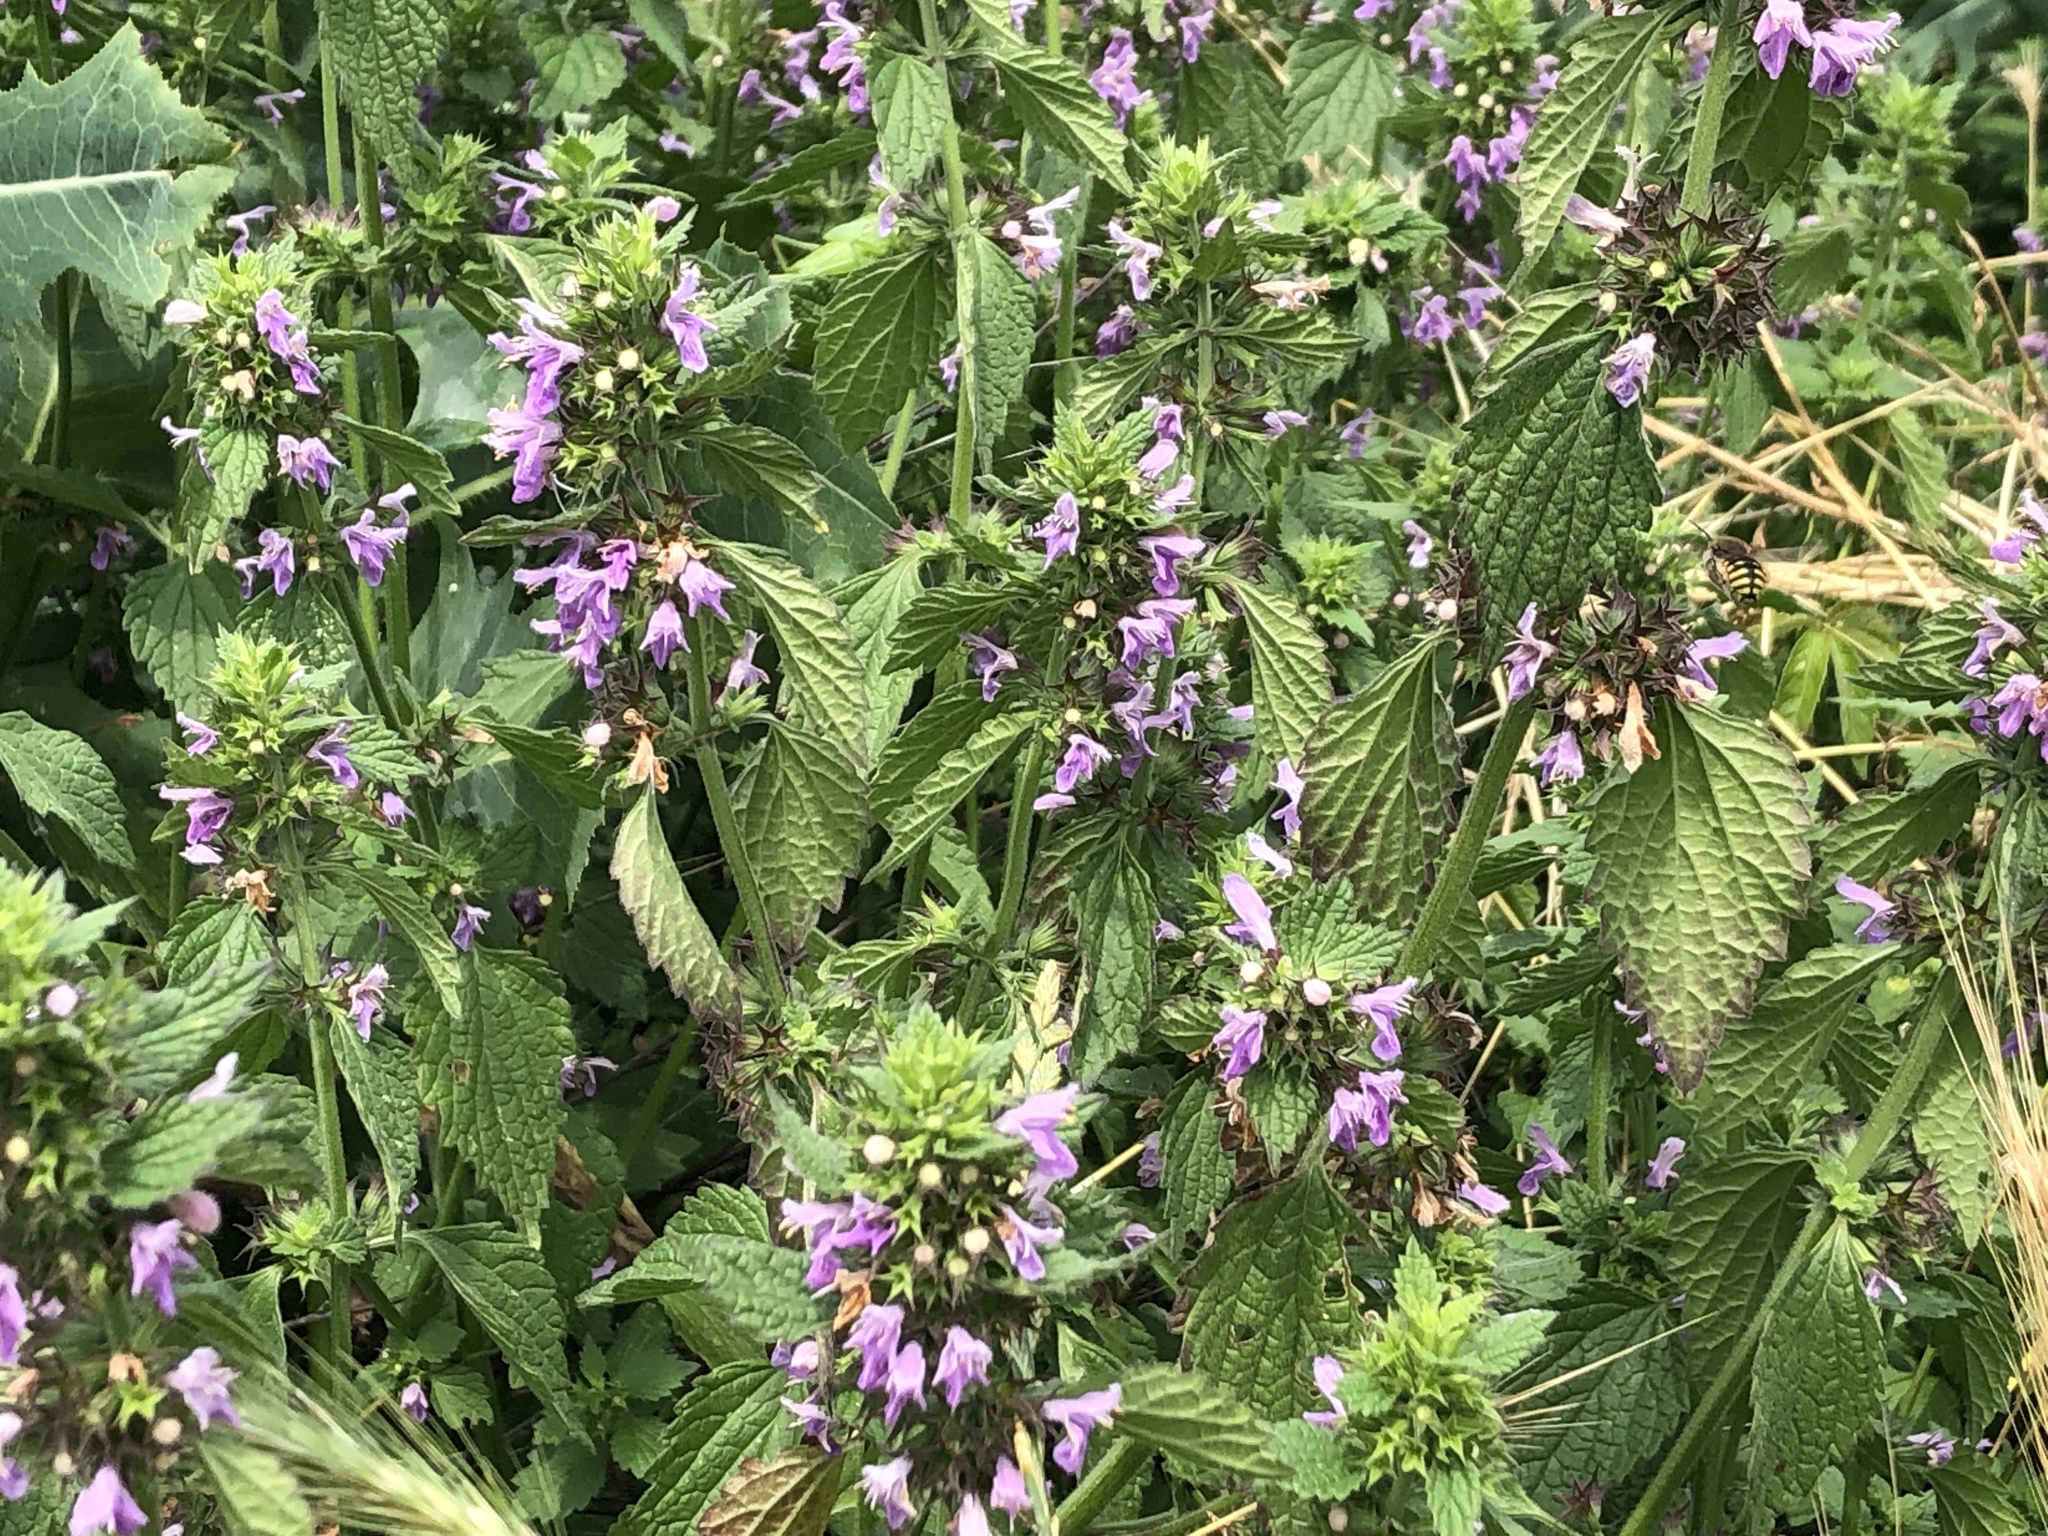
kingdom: Plantae
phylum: Tracheophyta
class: Magnoliopsida
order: Lamiales
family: Lamiaceae
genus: Ballota
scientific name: Ballota nigra
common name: Black horehound
